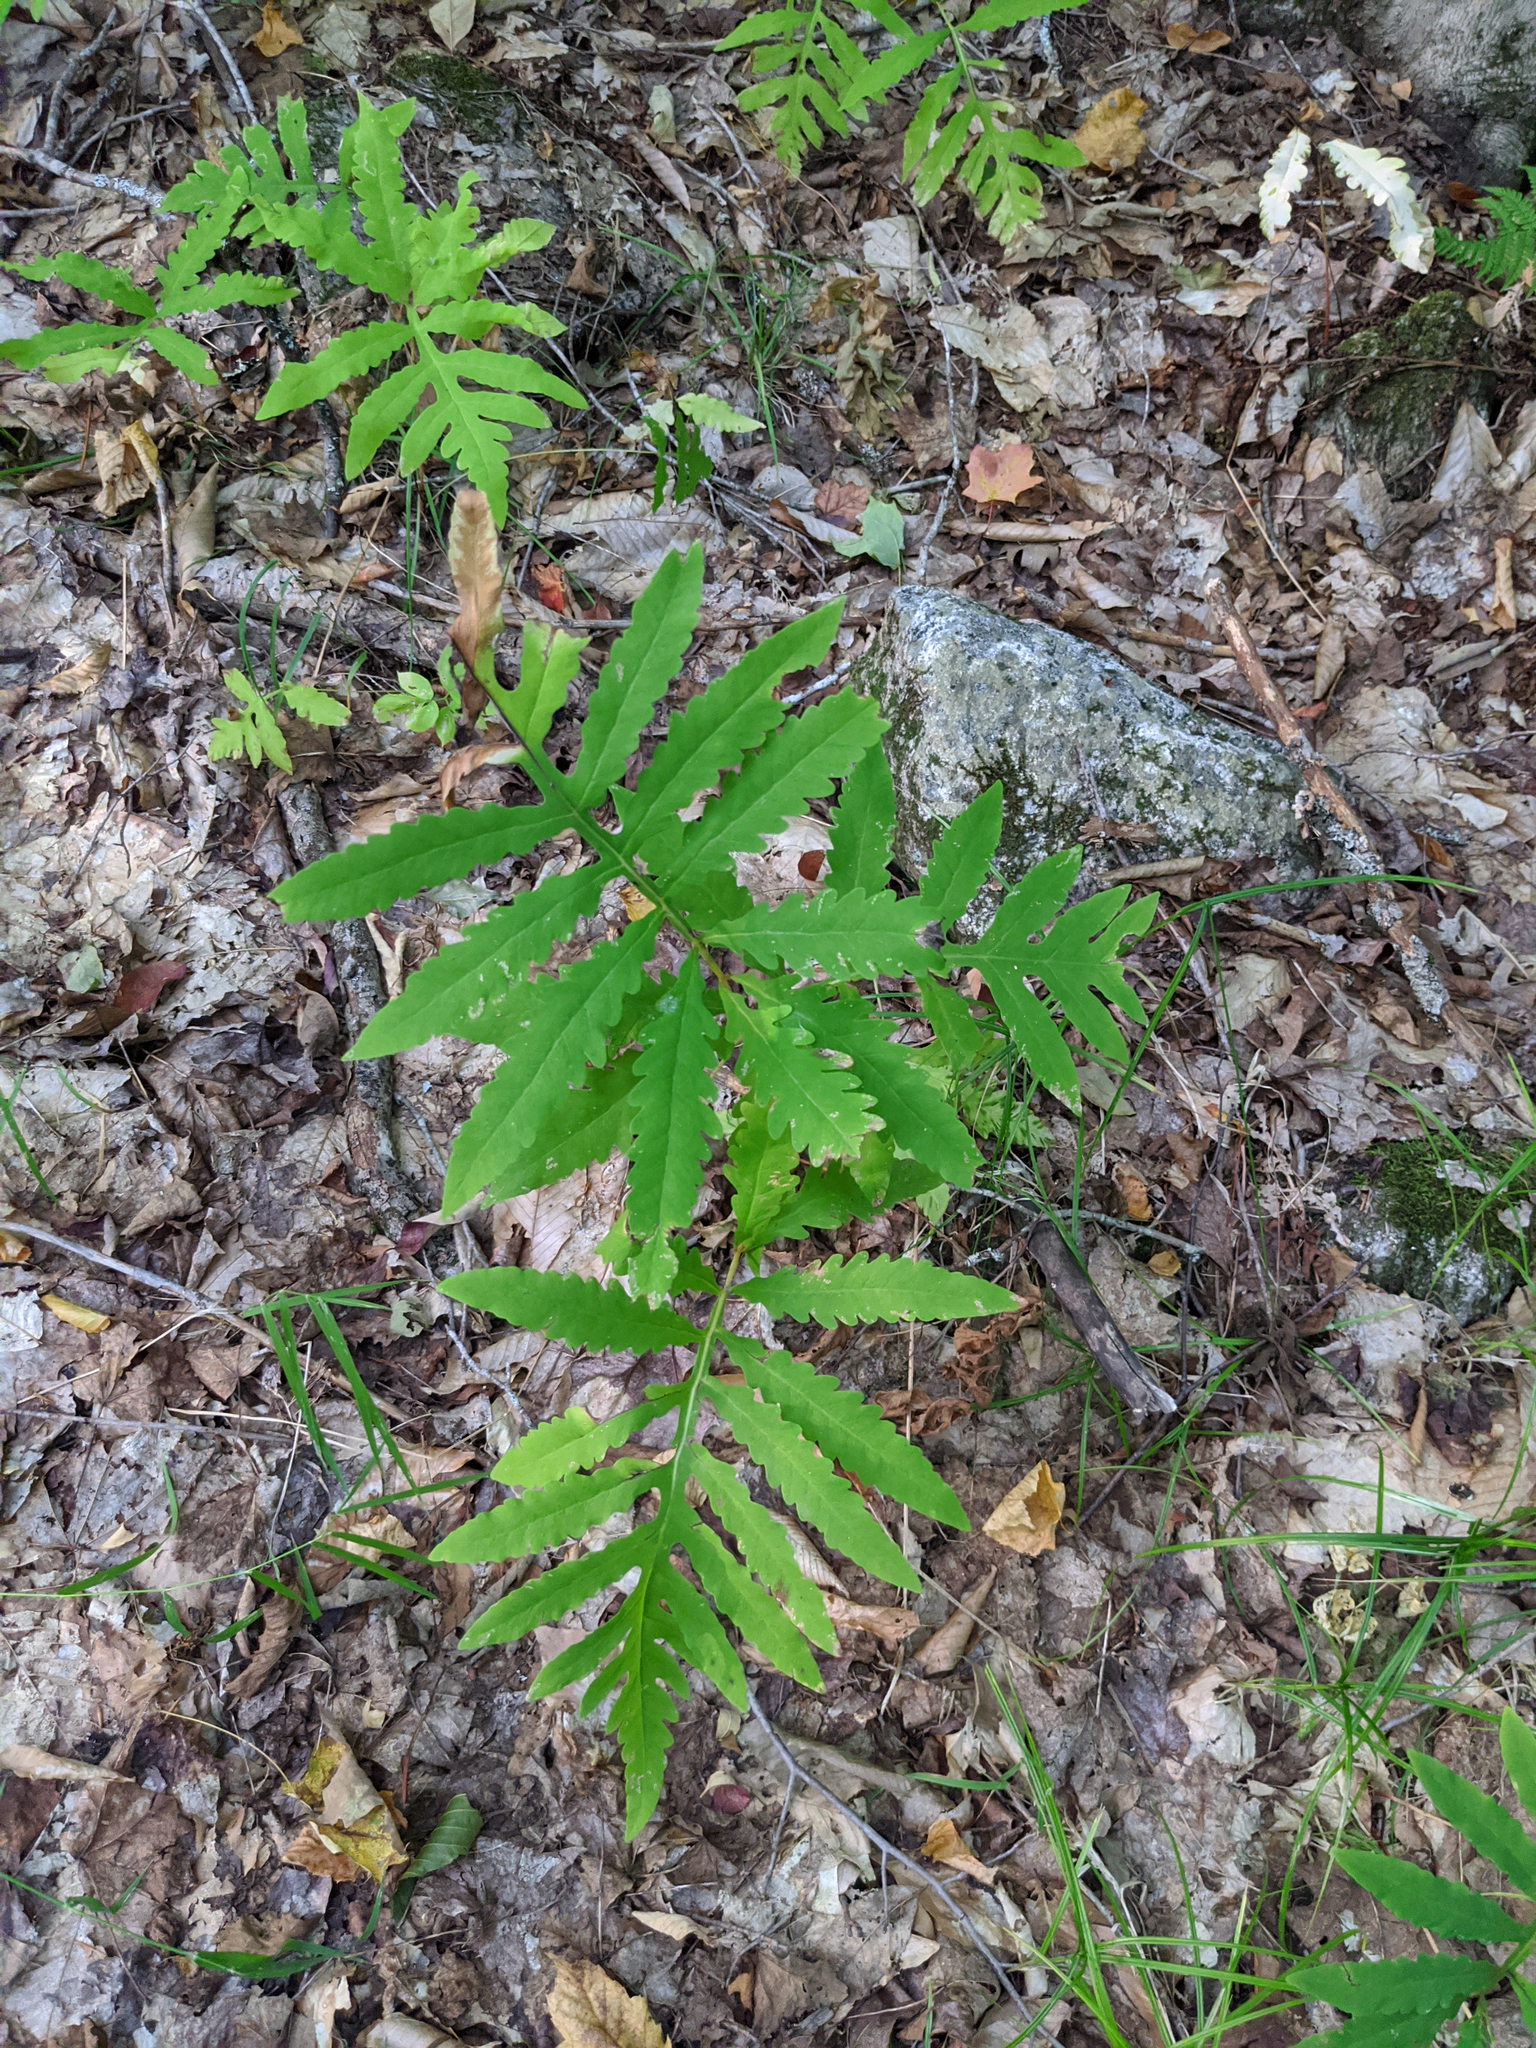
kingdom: Plantae
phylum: Tracheophyta
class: Polypodiopsida
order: Polypodiales
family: Onocleaceae
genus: Onoclea
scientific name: Onoclea sensibilis
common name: Sensitive fern
